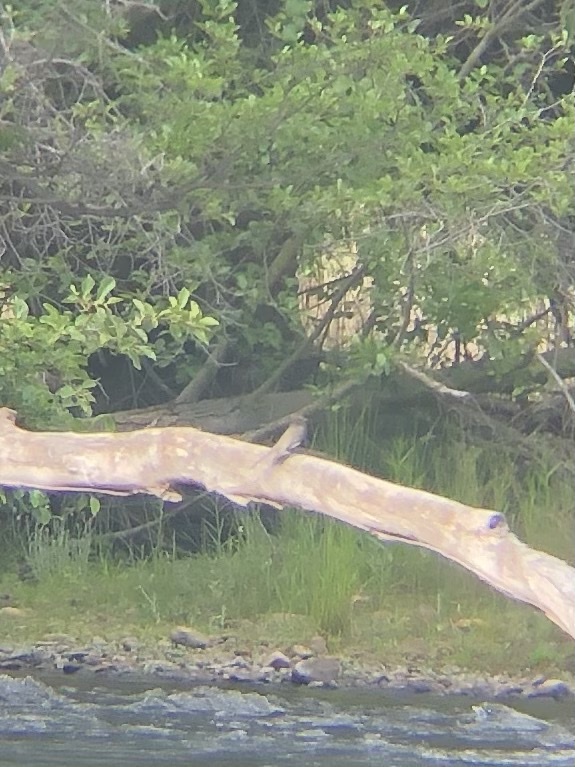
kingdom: Animalia
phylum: Chordata
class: Aves
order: Passeriformes
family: Tyrannidae
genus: Sayornis
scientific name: Sayornis nigricans
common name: Black phoebe
